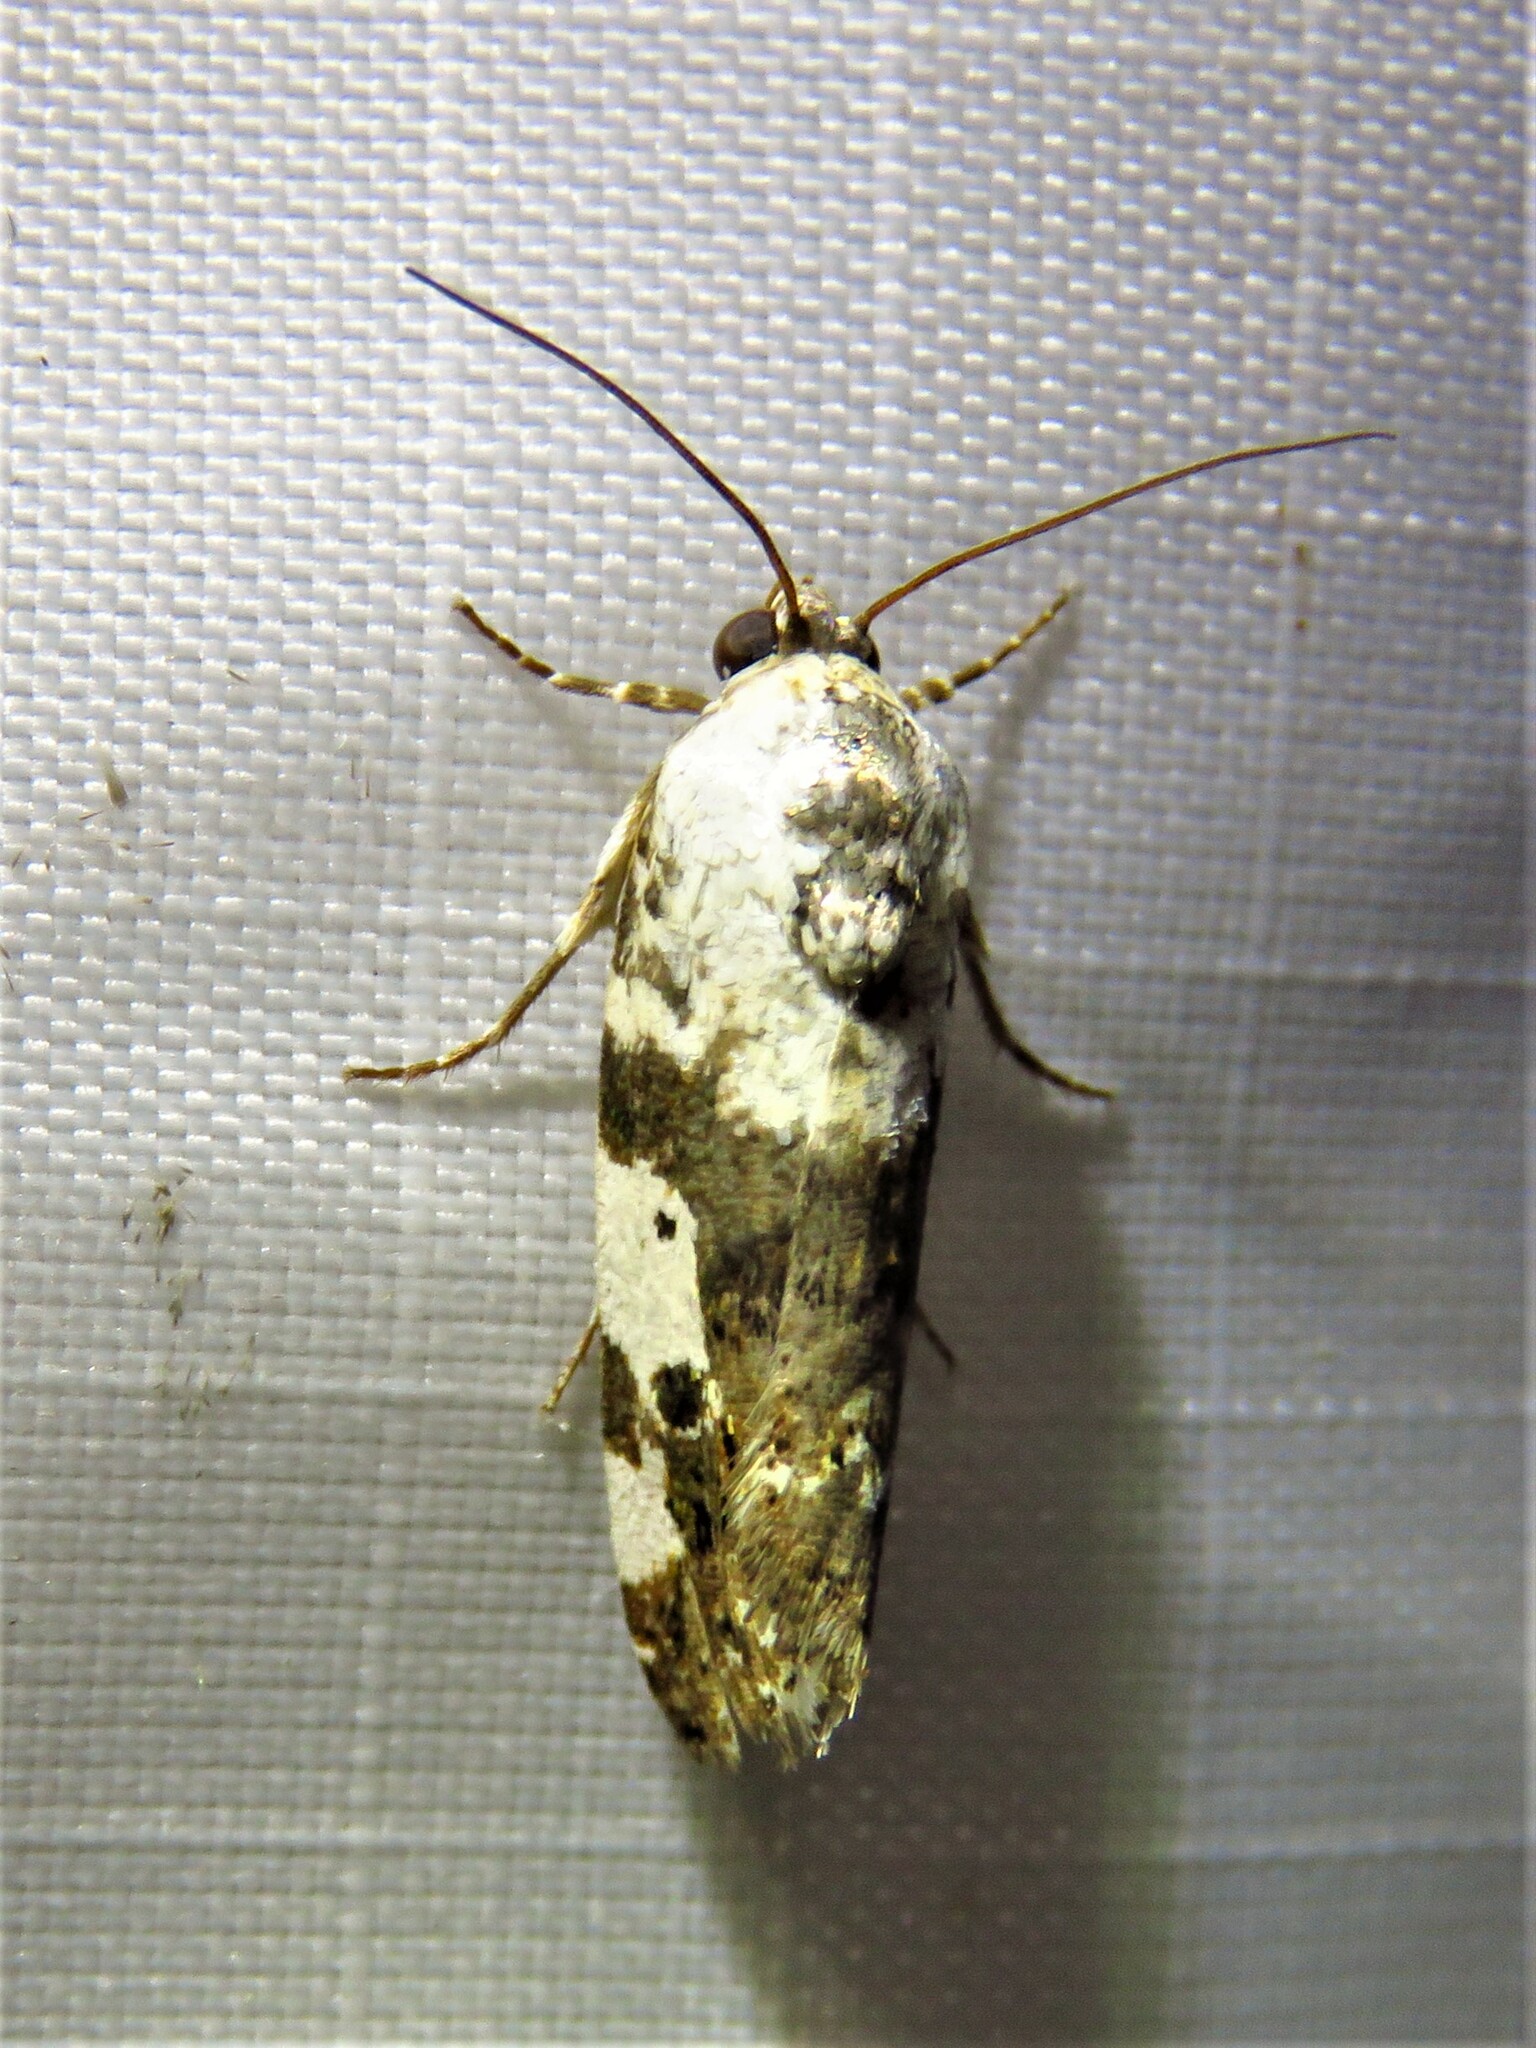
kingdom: Animalia
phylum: Arthropoda
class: Insecta
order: Lepidoptera
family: Noctuidae
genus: Acontia
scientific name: Acontia aprica
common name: Nun
